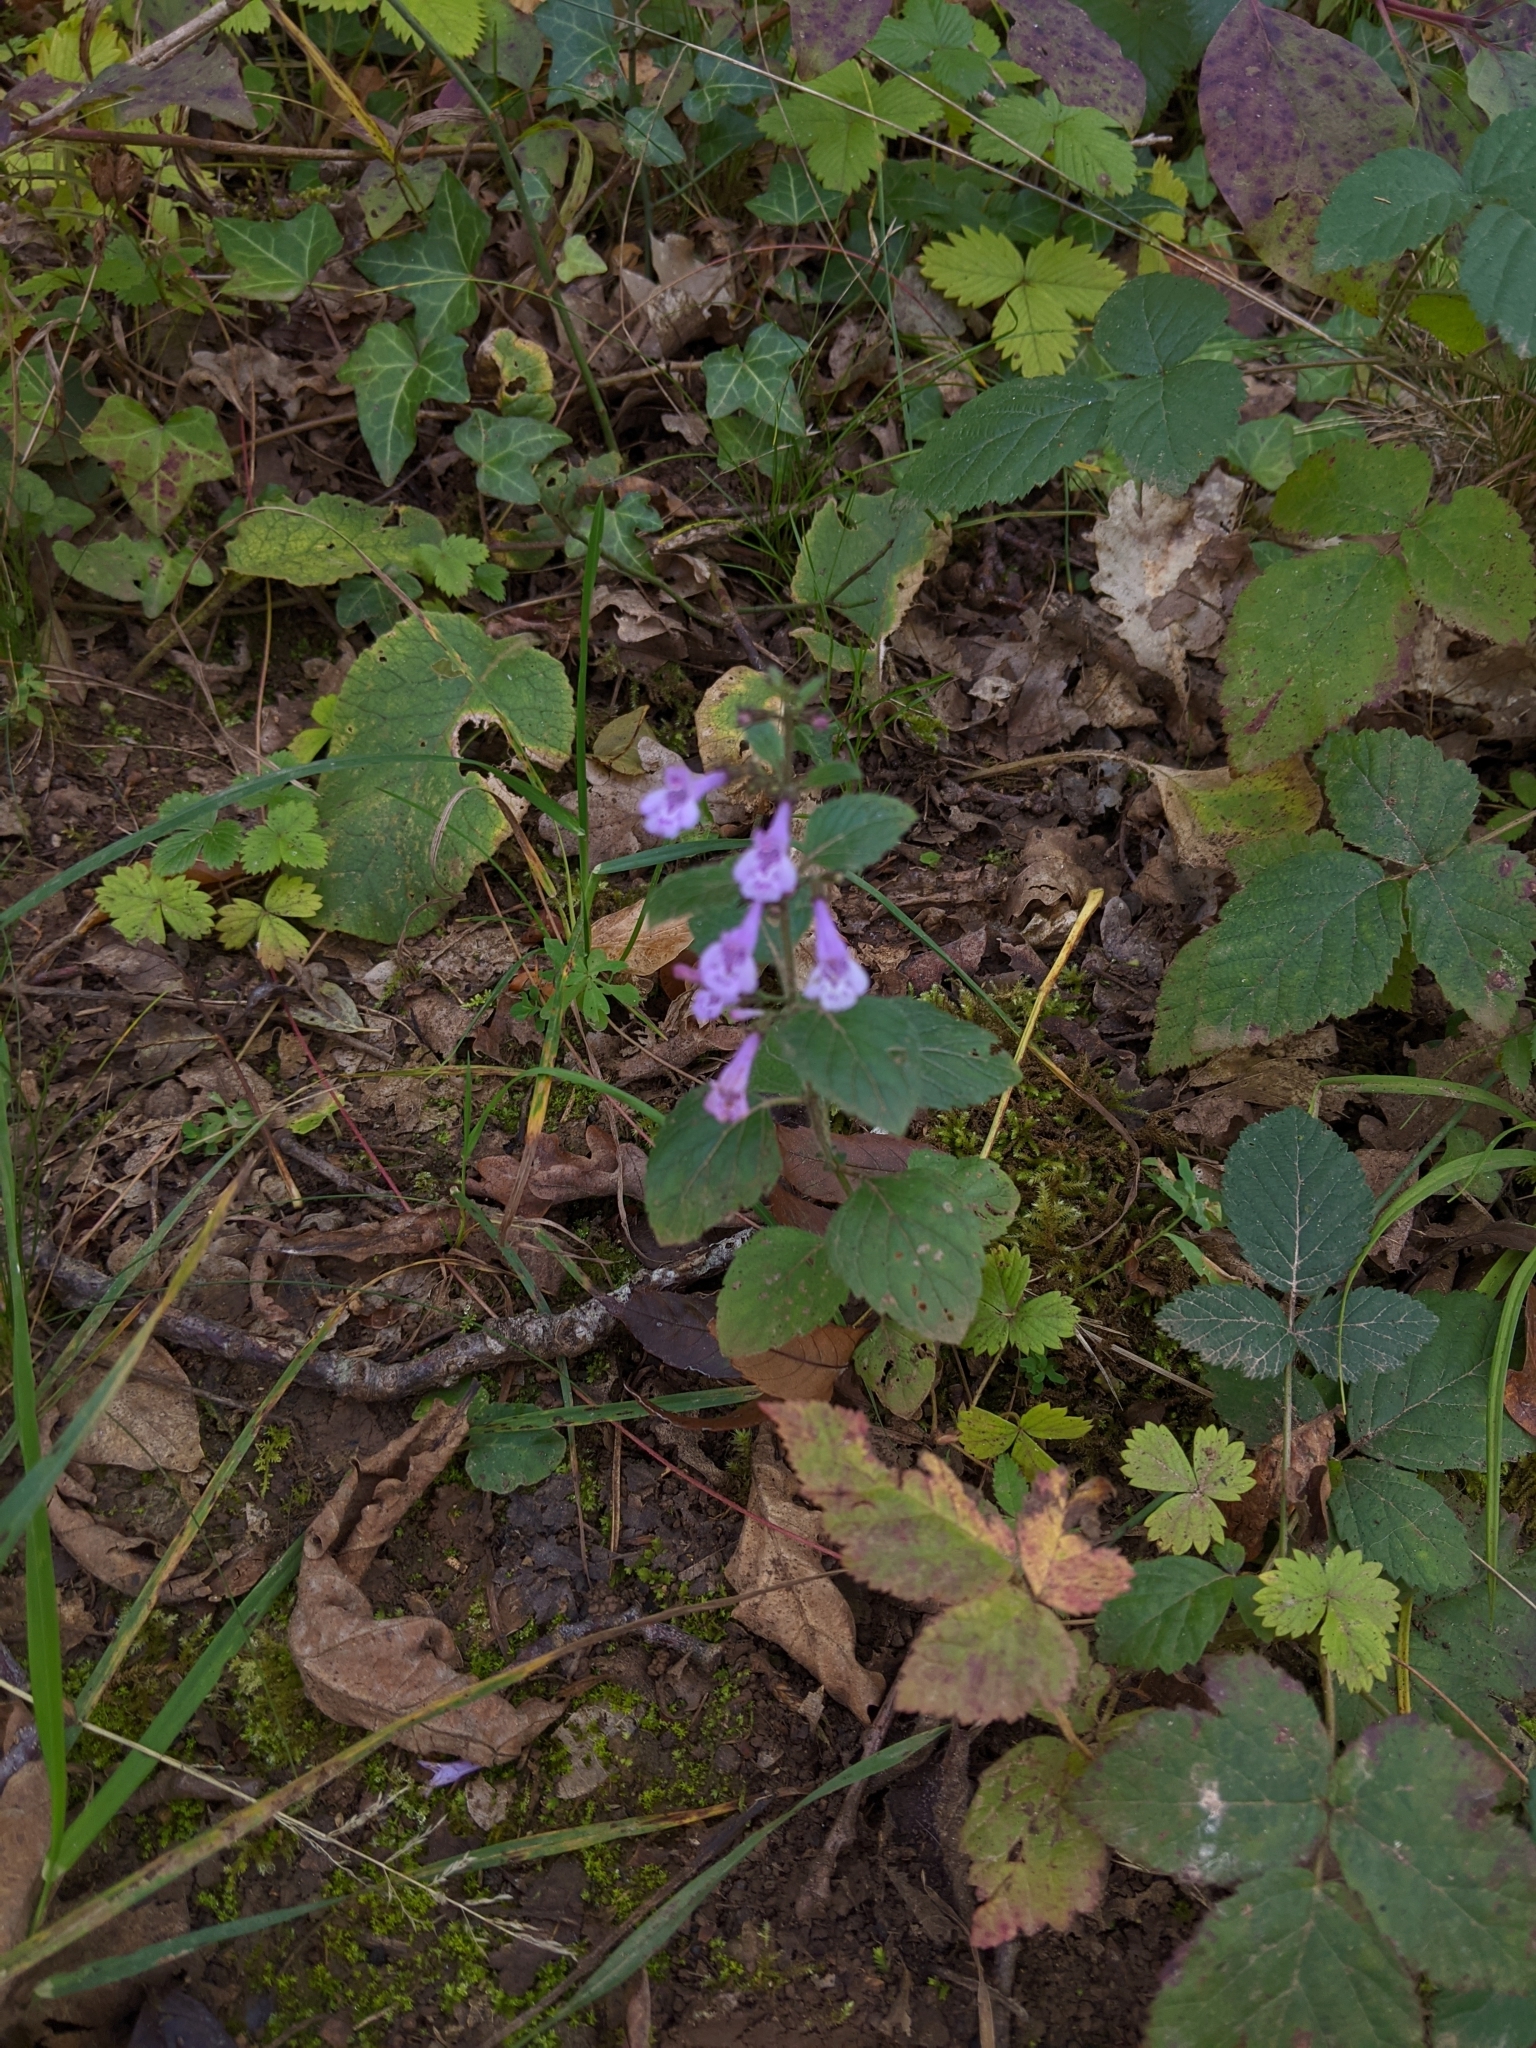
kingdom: Plantae
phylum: Tracheophyta
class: Magnoliopsida
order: Lamiales
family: Lamiaceae
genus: Clinopodium
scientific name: Clinopodium menthifolium
